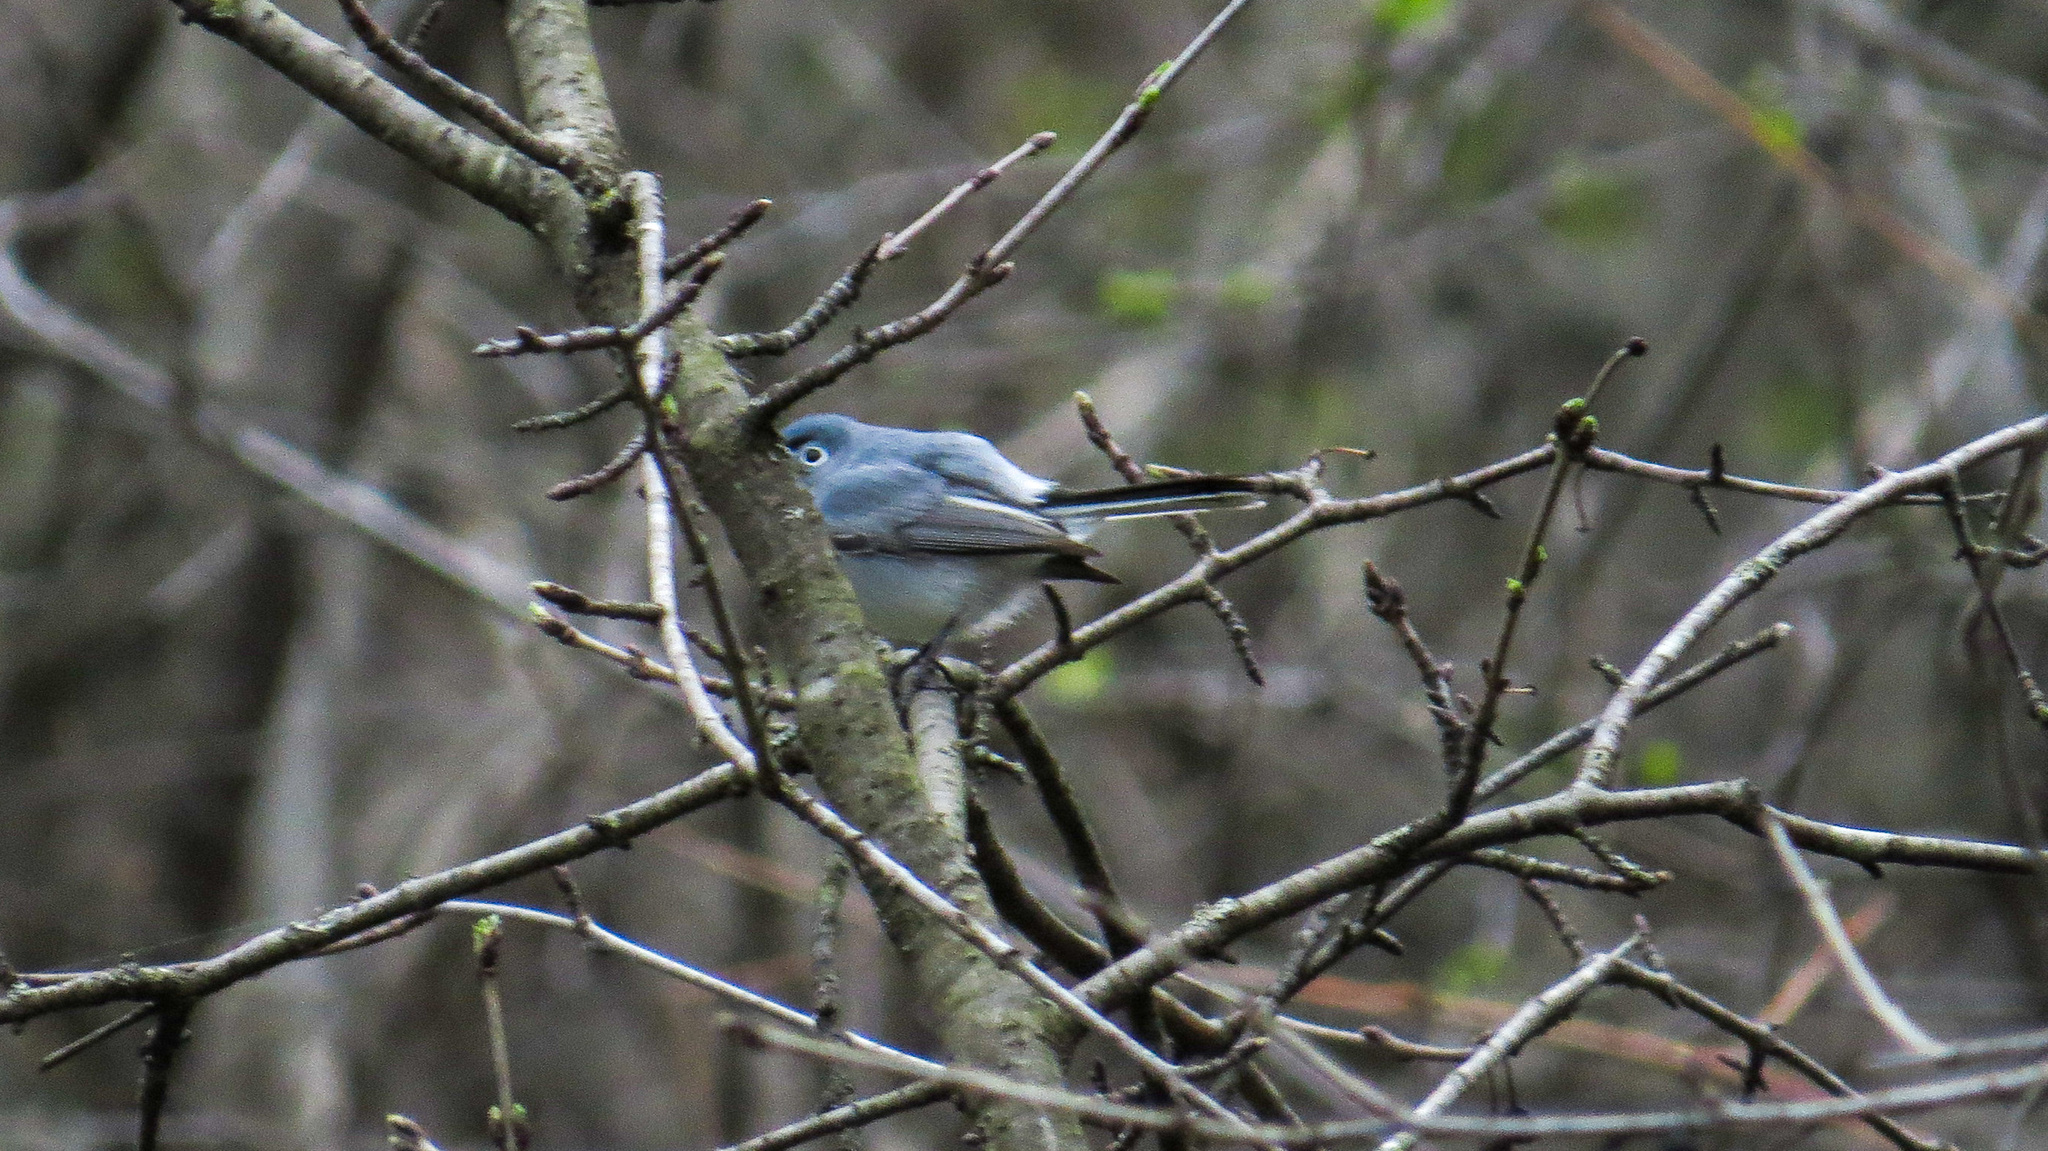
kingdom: Animalia
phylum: Chordata
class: Aves
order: Passeriformes
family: Polioptilidae
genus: Polioptila
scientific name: Polioptila caerulea
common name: Blue-gray gnatcatcher
